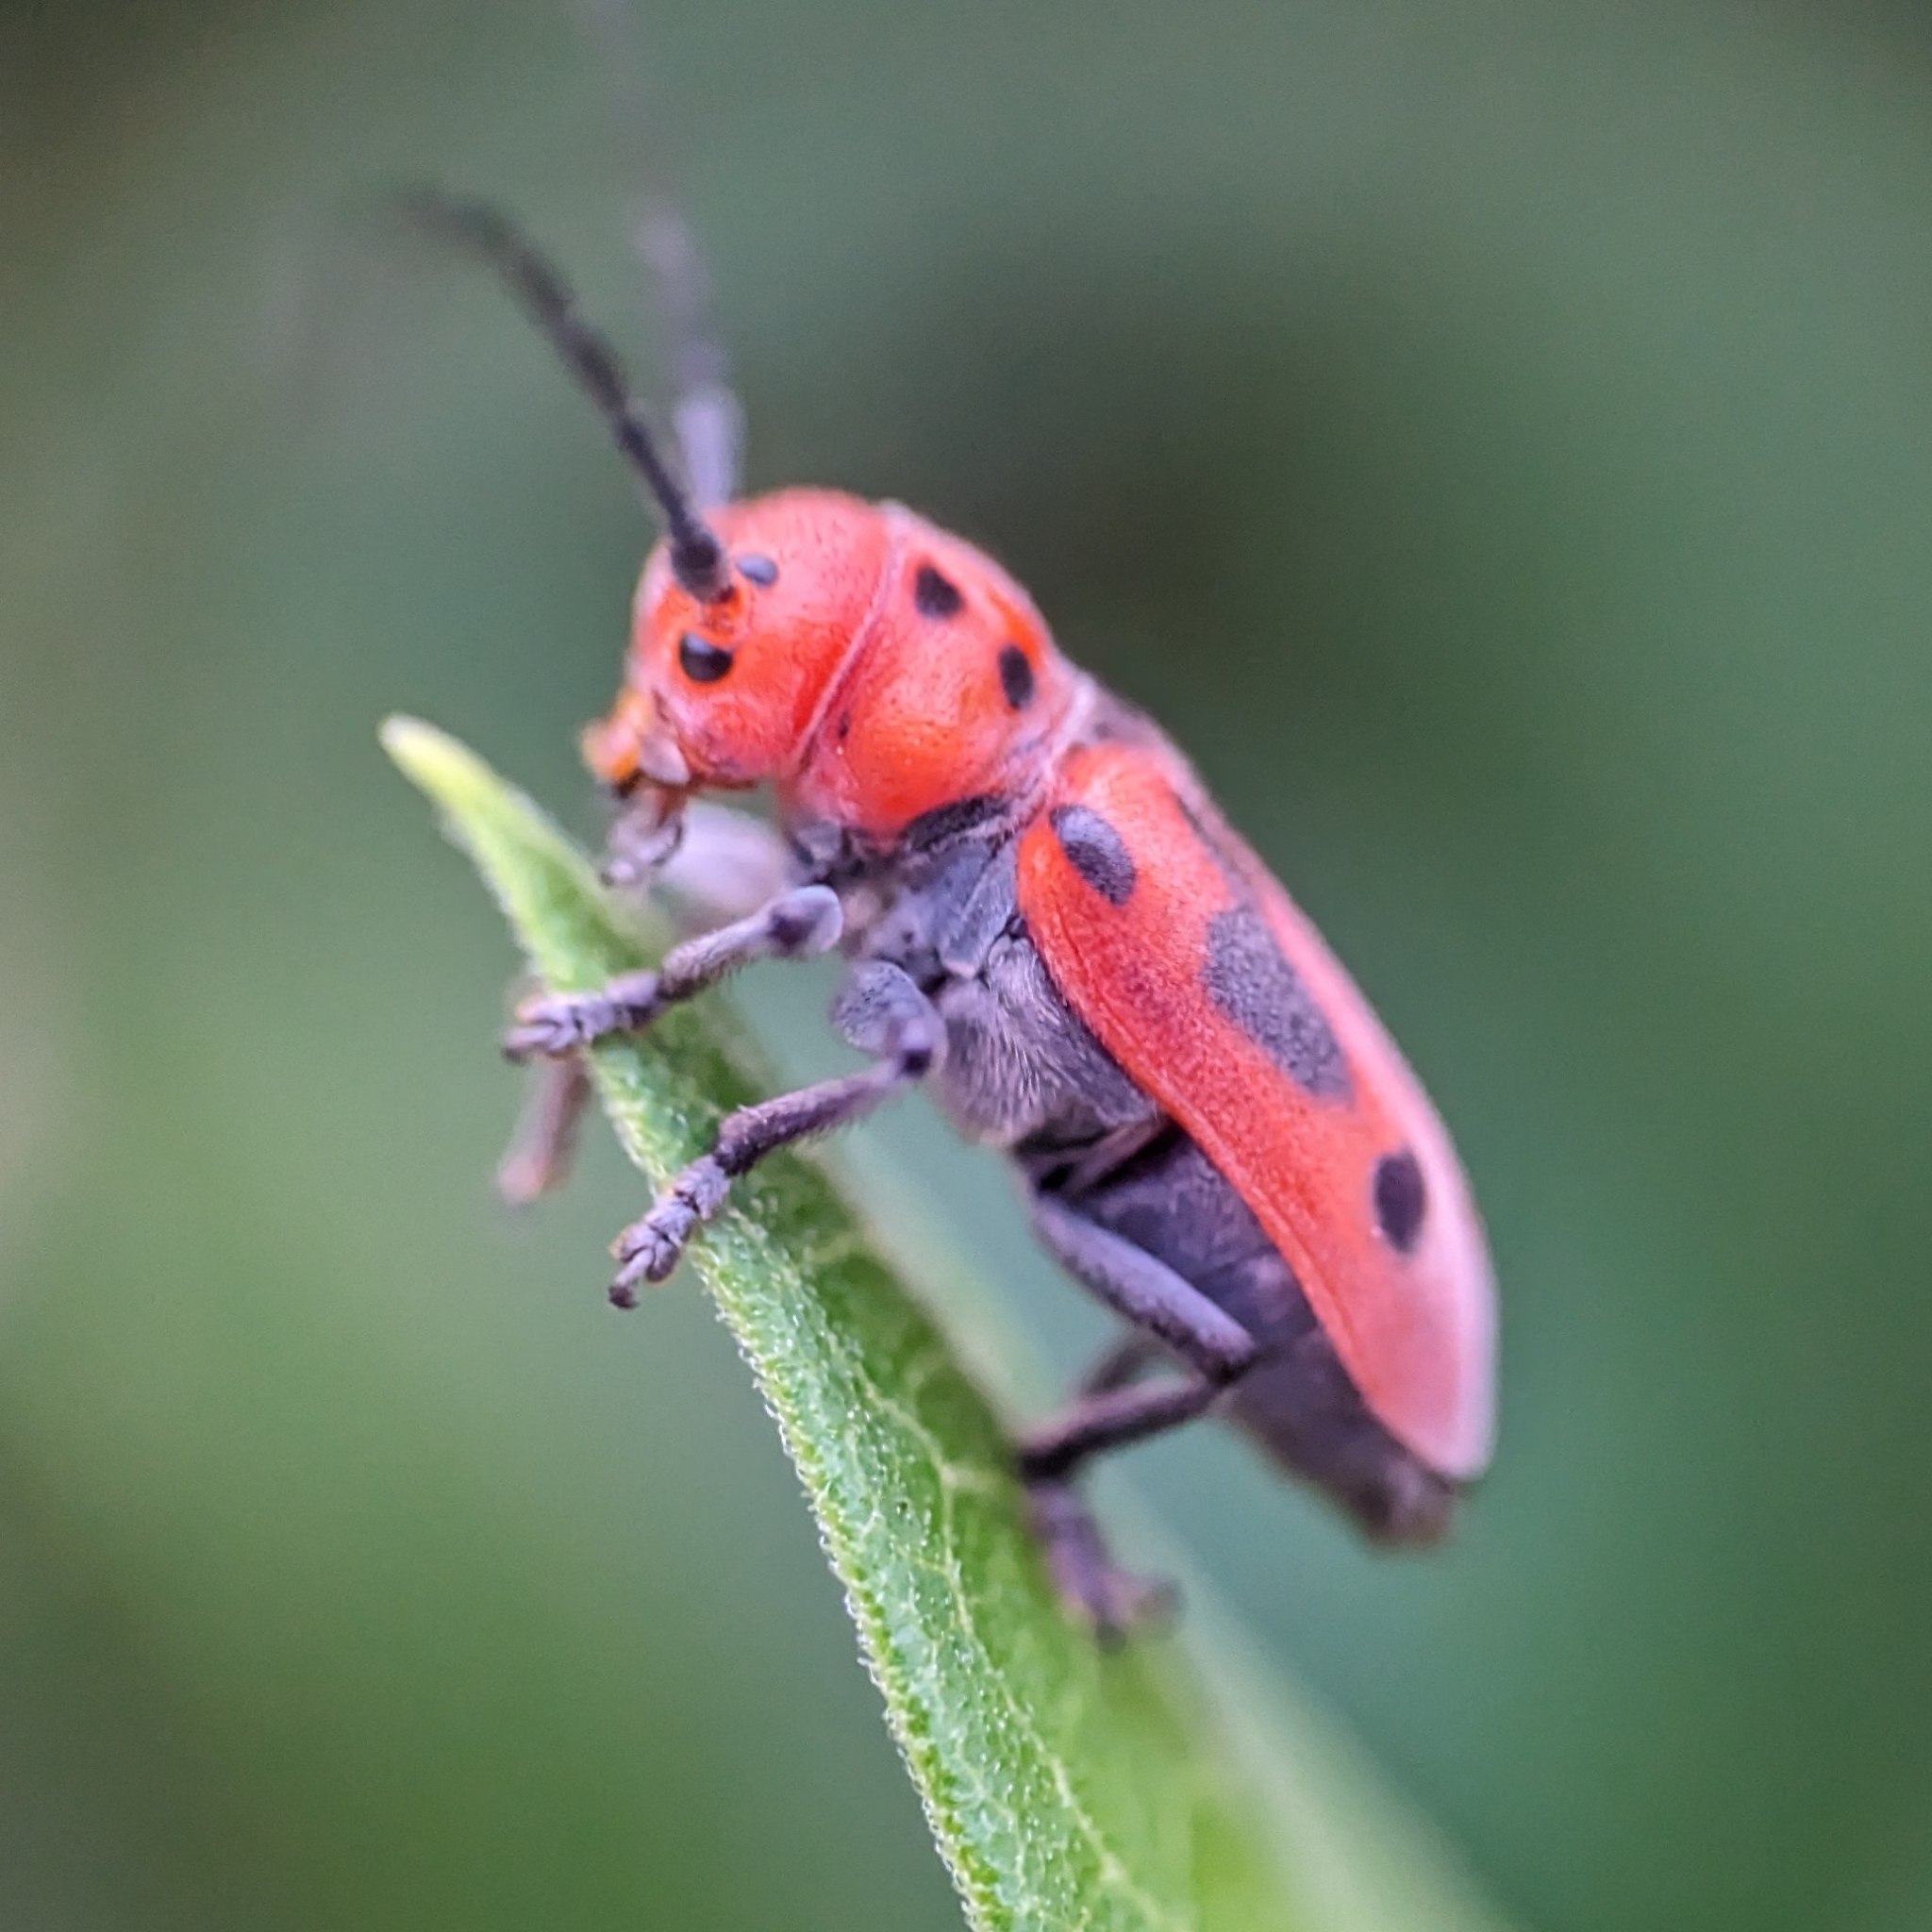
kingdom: Animalia
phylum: Arthropoda
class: Insecta
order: Coleoptera
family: Cerambycidae
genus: Tetraopes
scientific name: Tetraopes tetrophthalmus
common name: Red milkweed beetle
